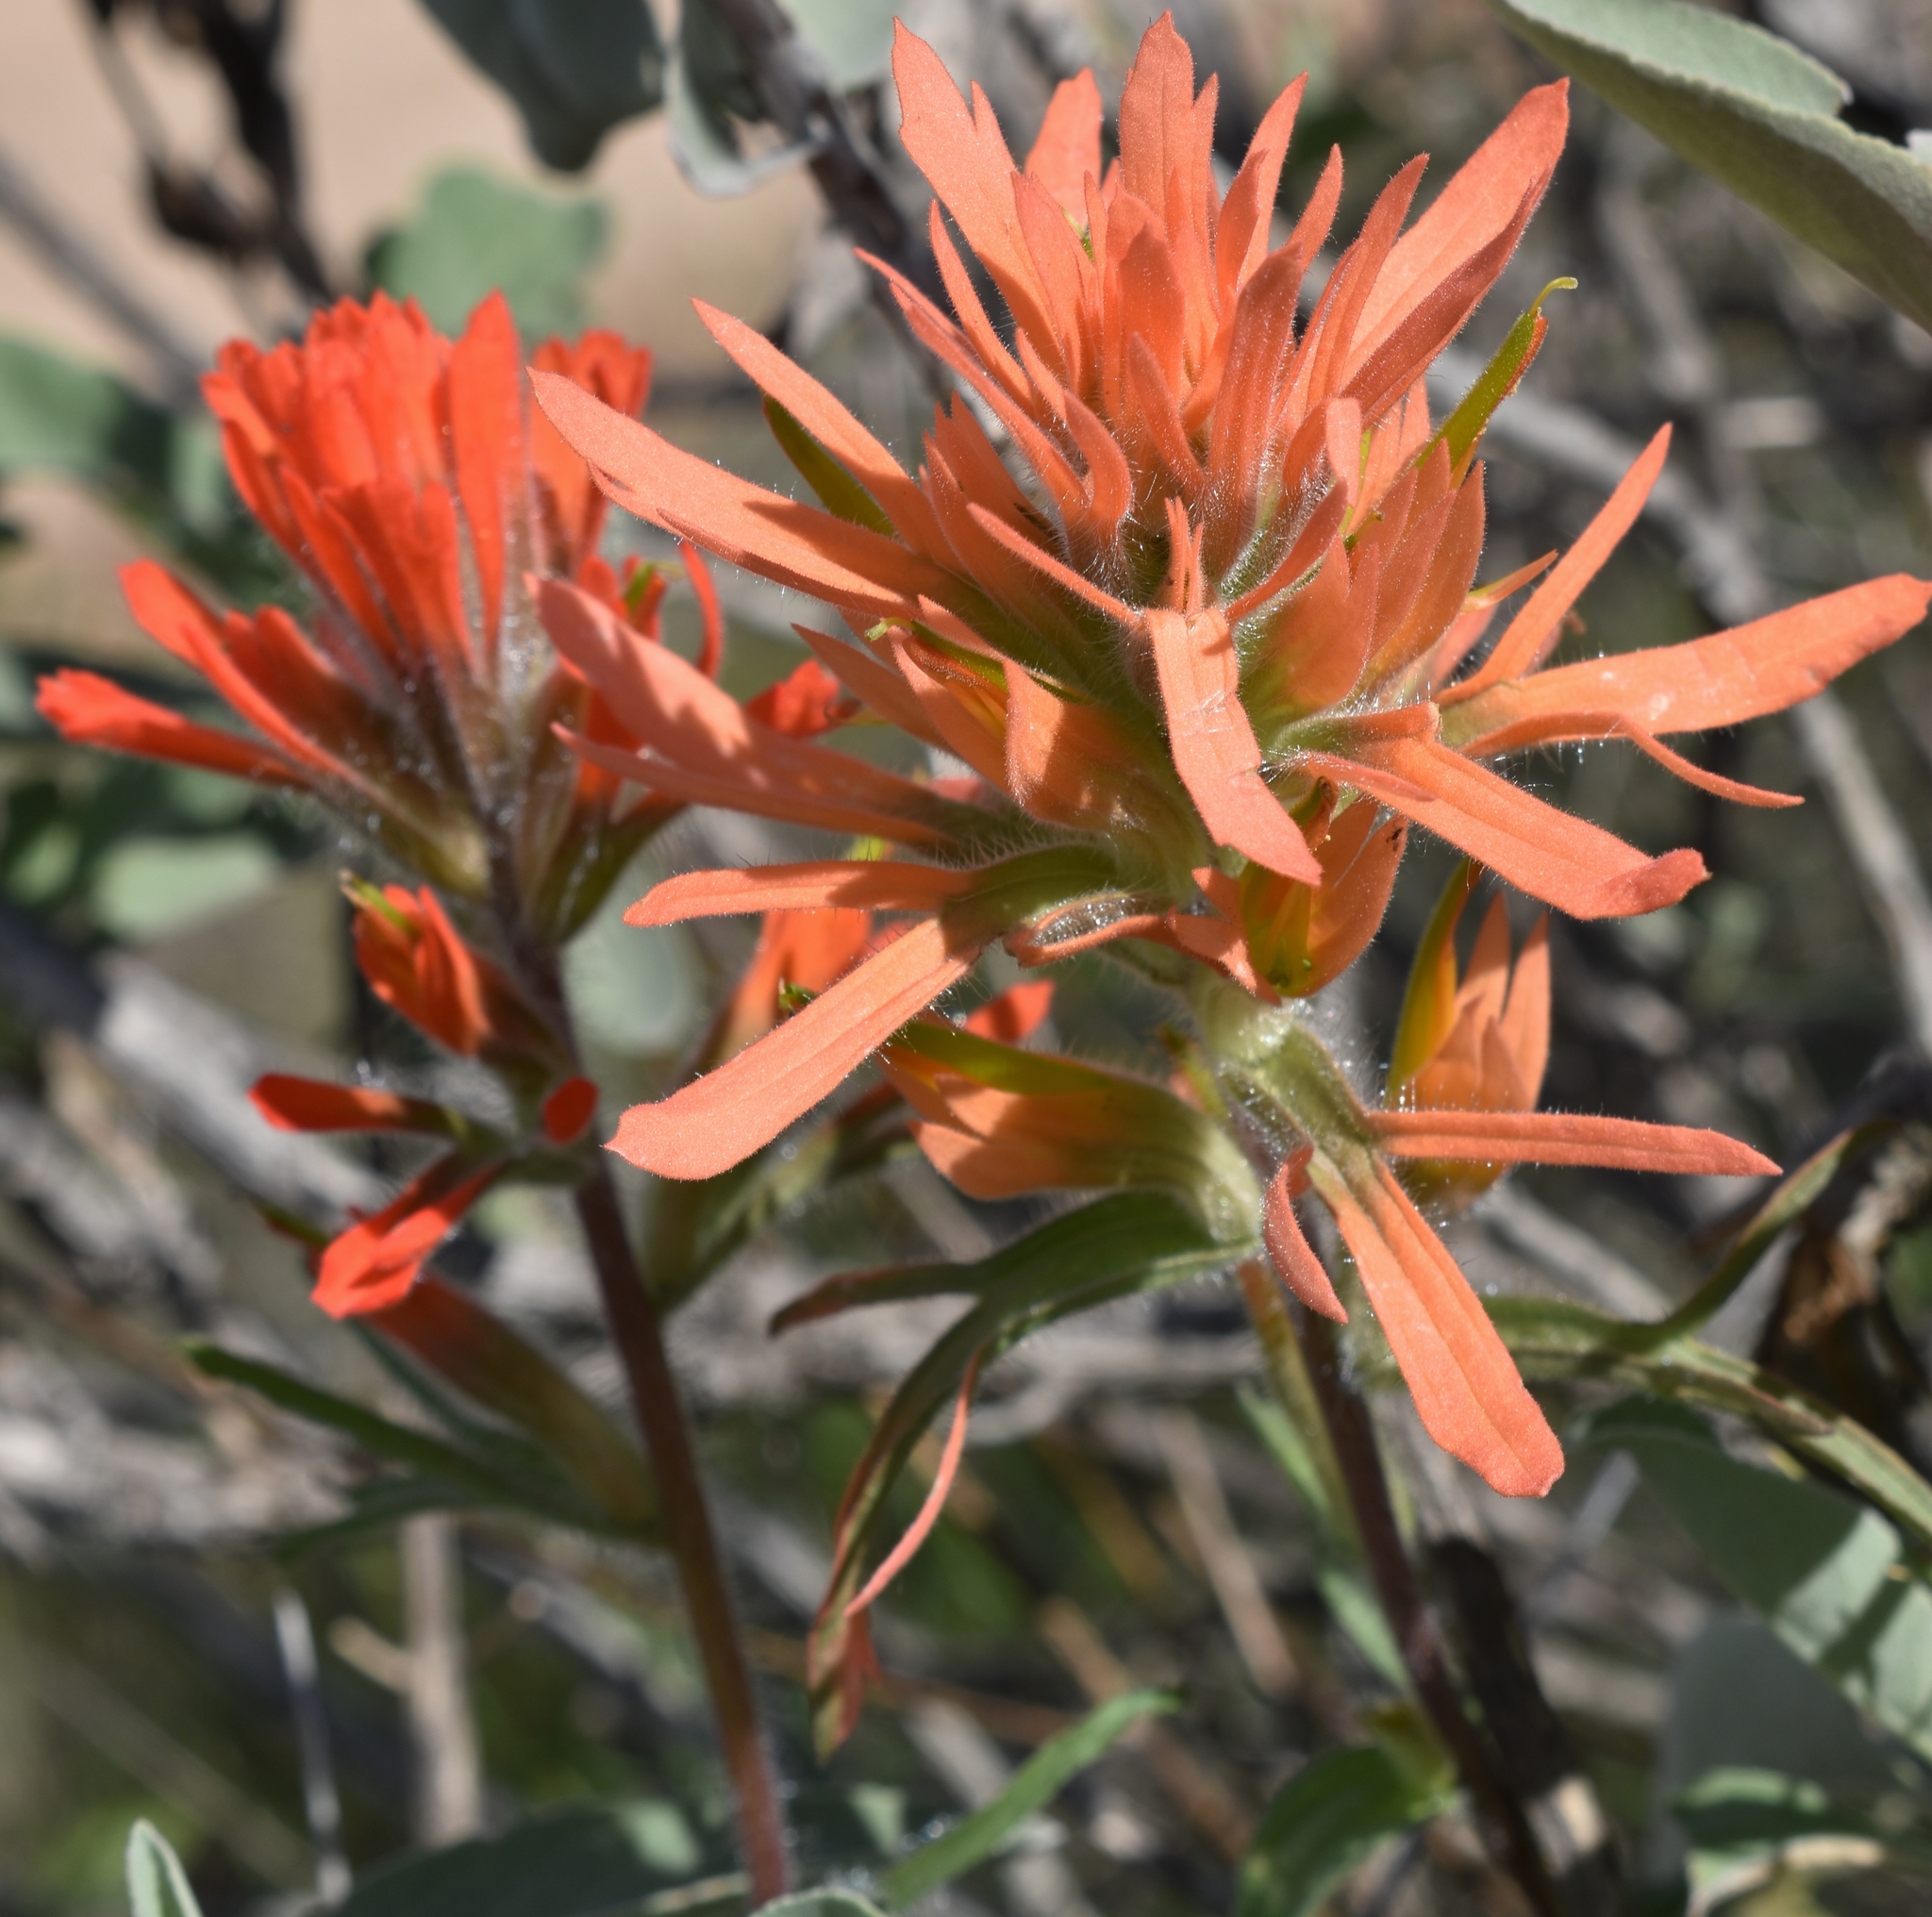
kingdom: Plantae
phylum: Tracheophyta
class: Magnoliopsida
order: Lamiales
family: Orobanchaceae
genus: Castilleja
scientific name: Castilleja affinis
